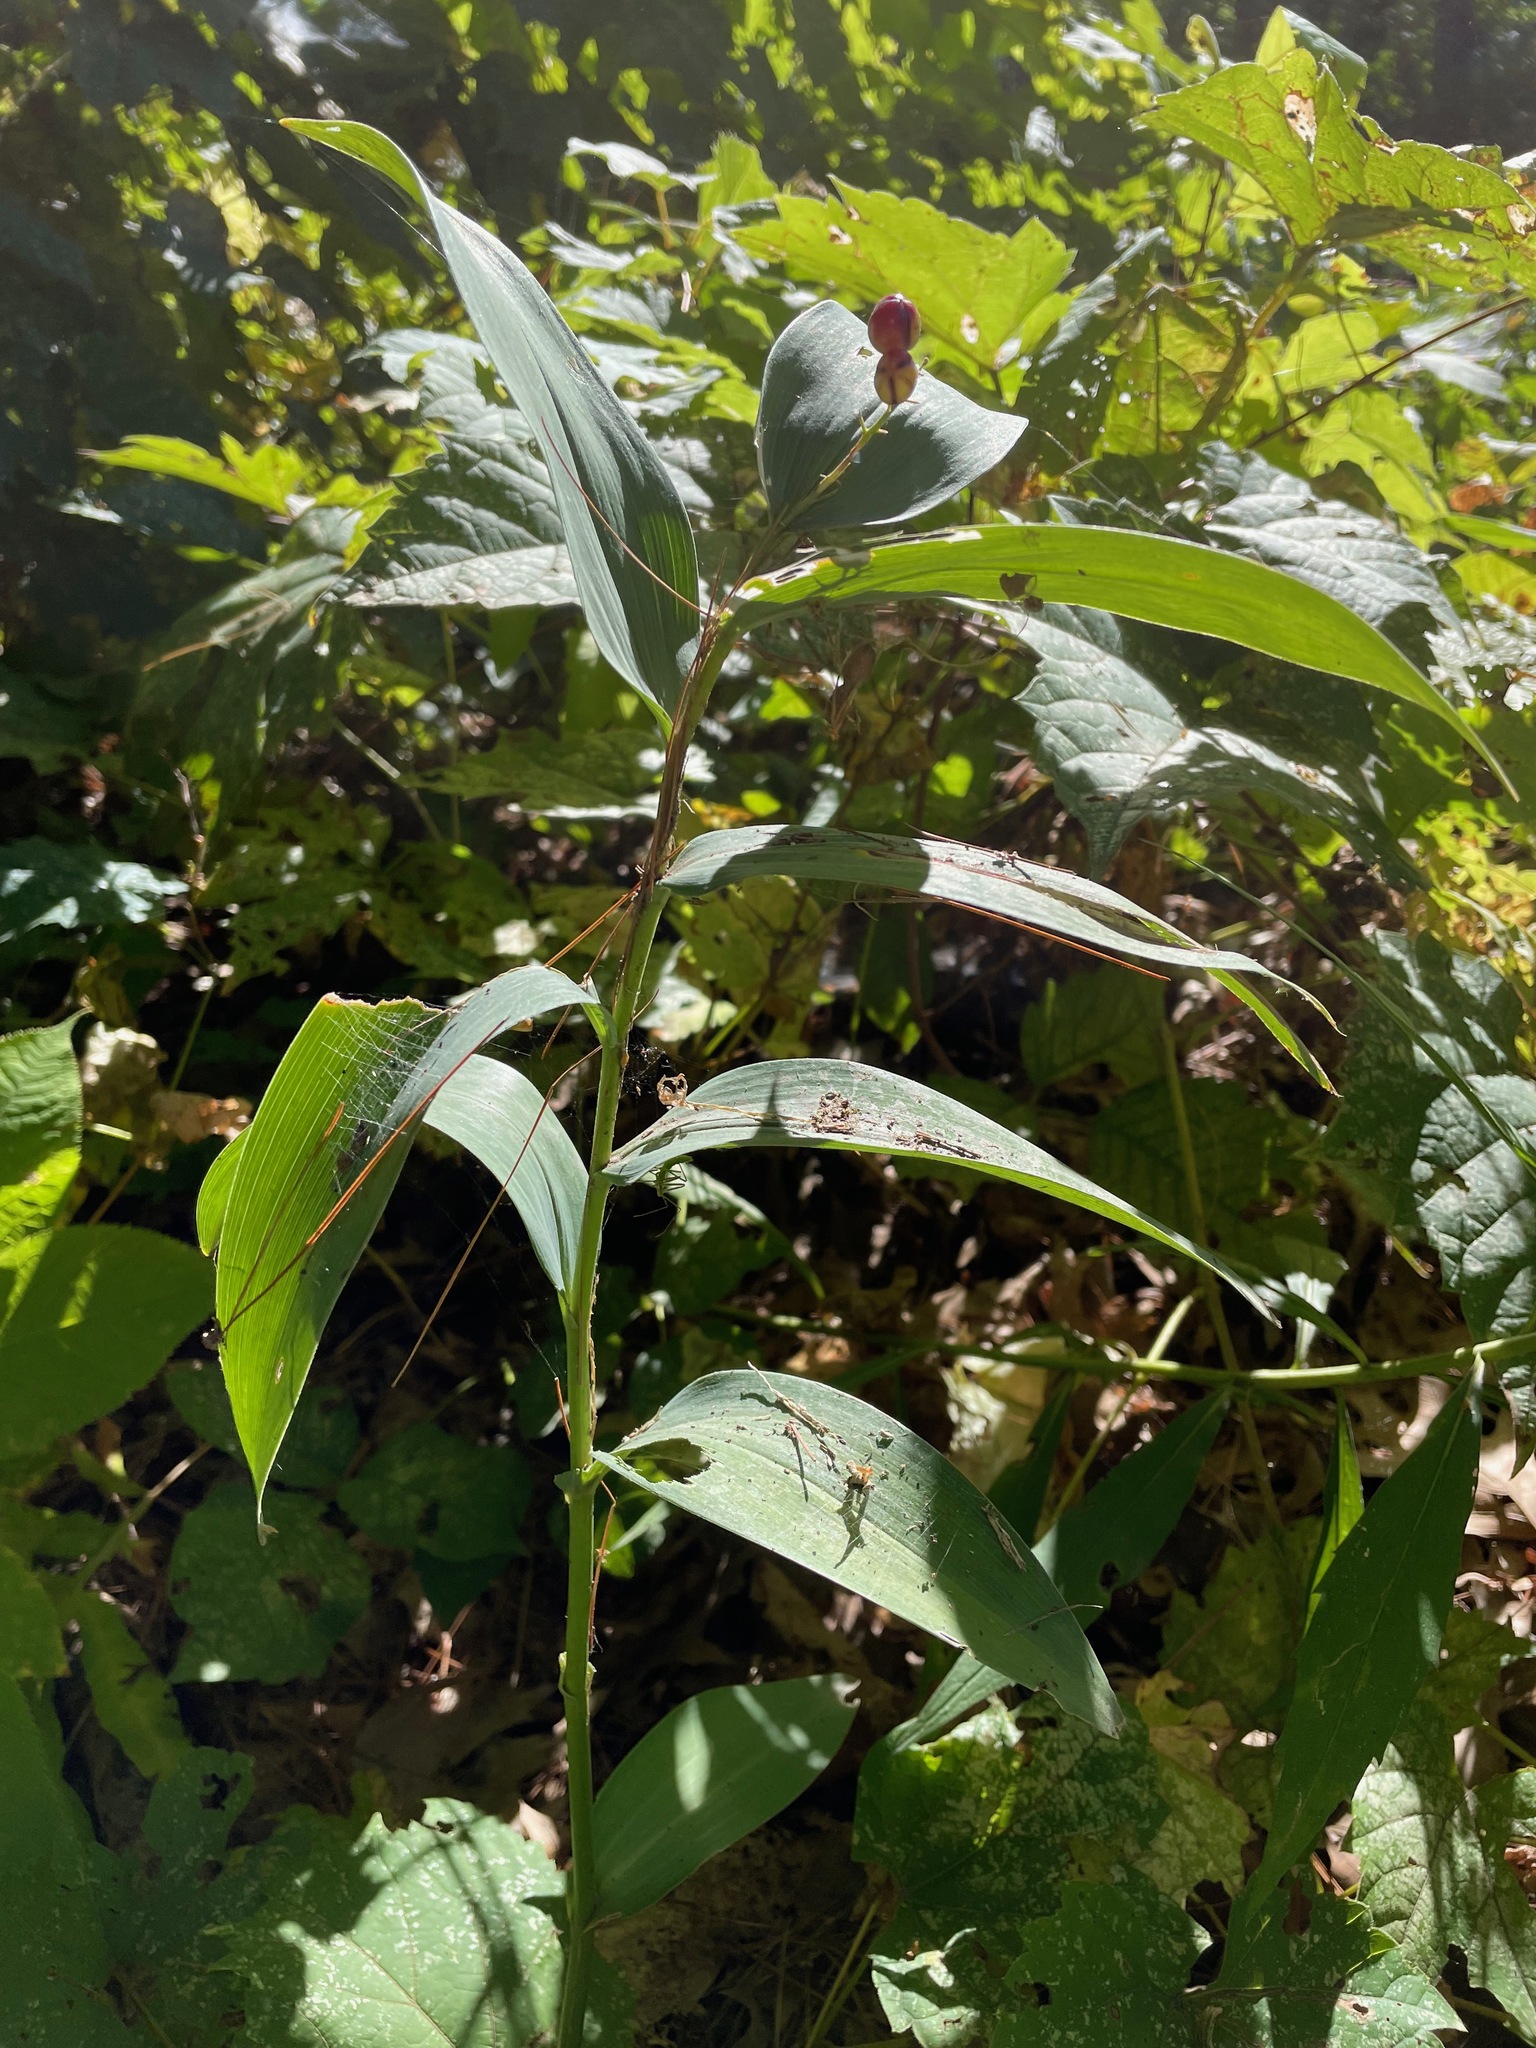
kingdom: Plantae
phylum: Tracheophyta
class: Liliopsida
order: Asparagales
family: Asparagaceae
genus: Maianthemum
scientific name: Maianthemum stellatum
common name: Little false solomon's seal
